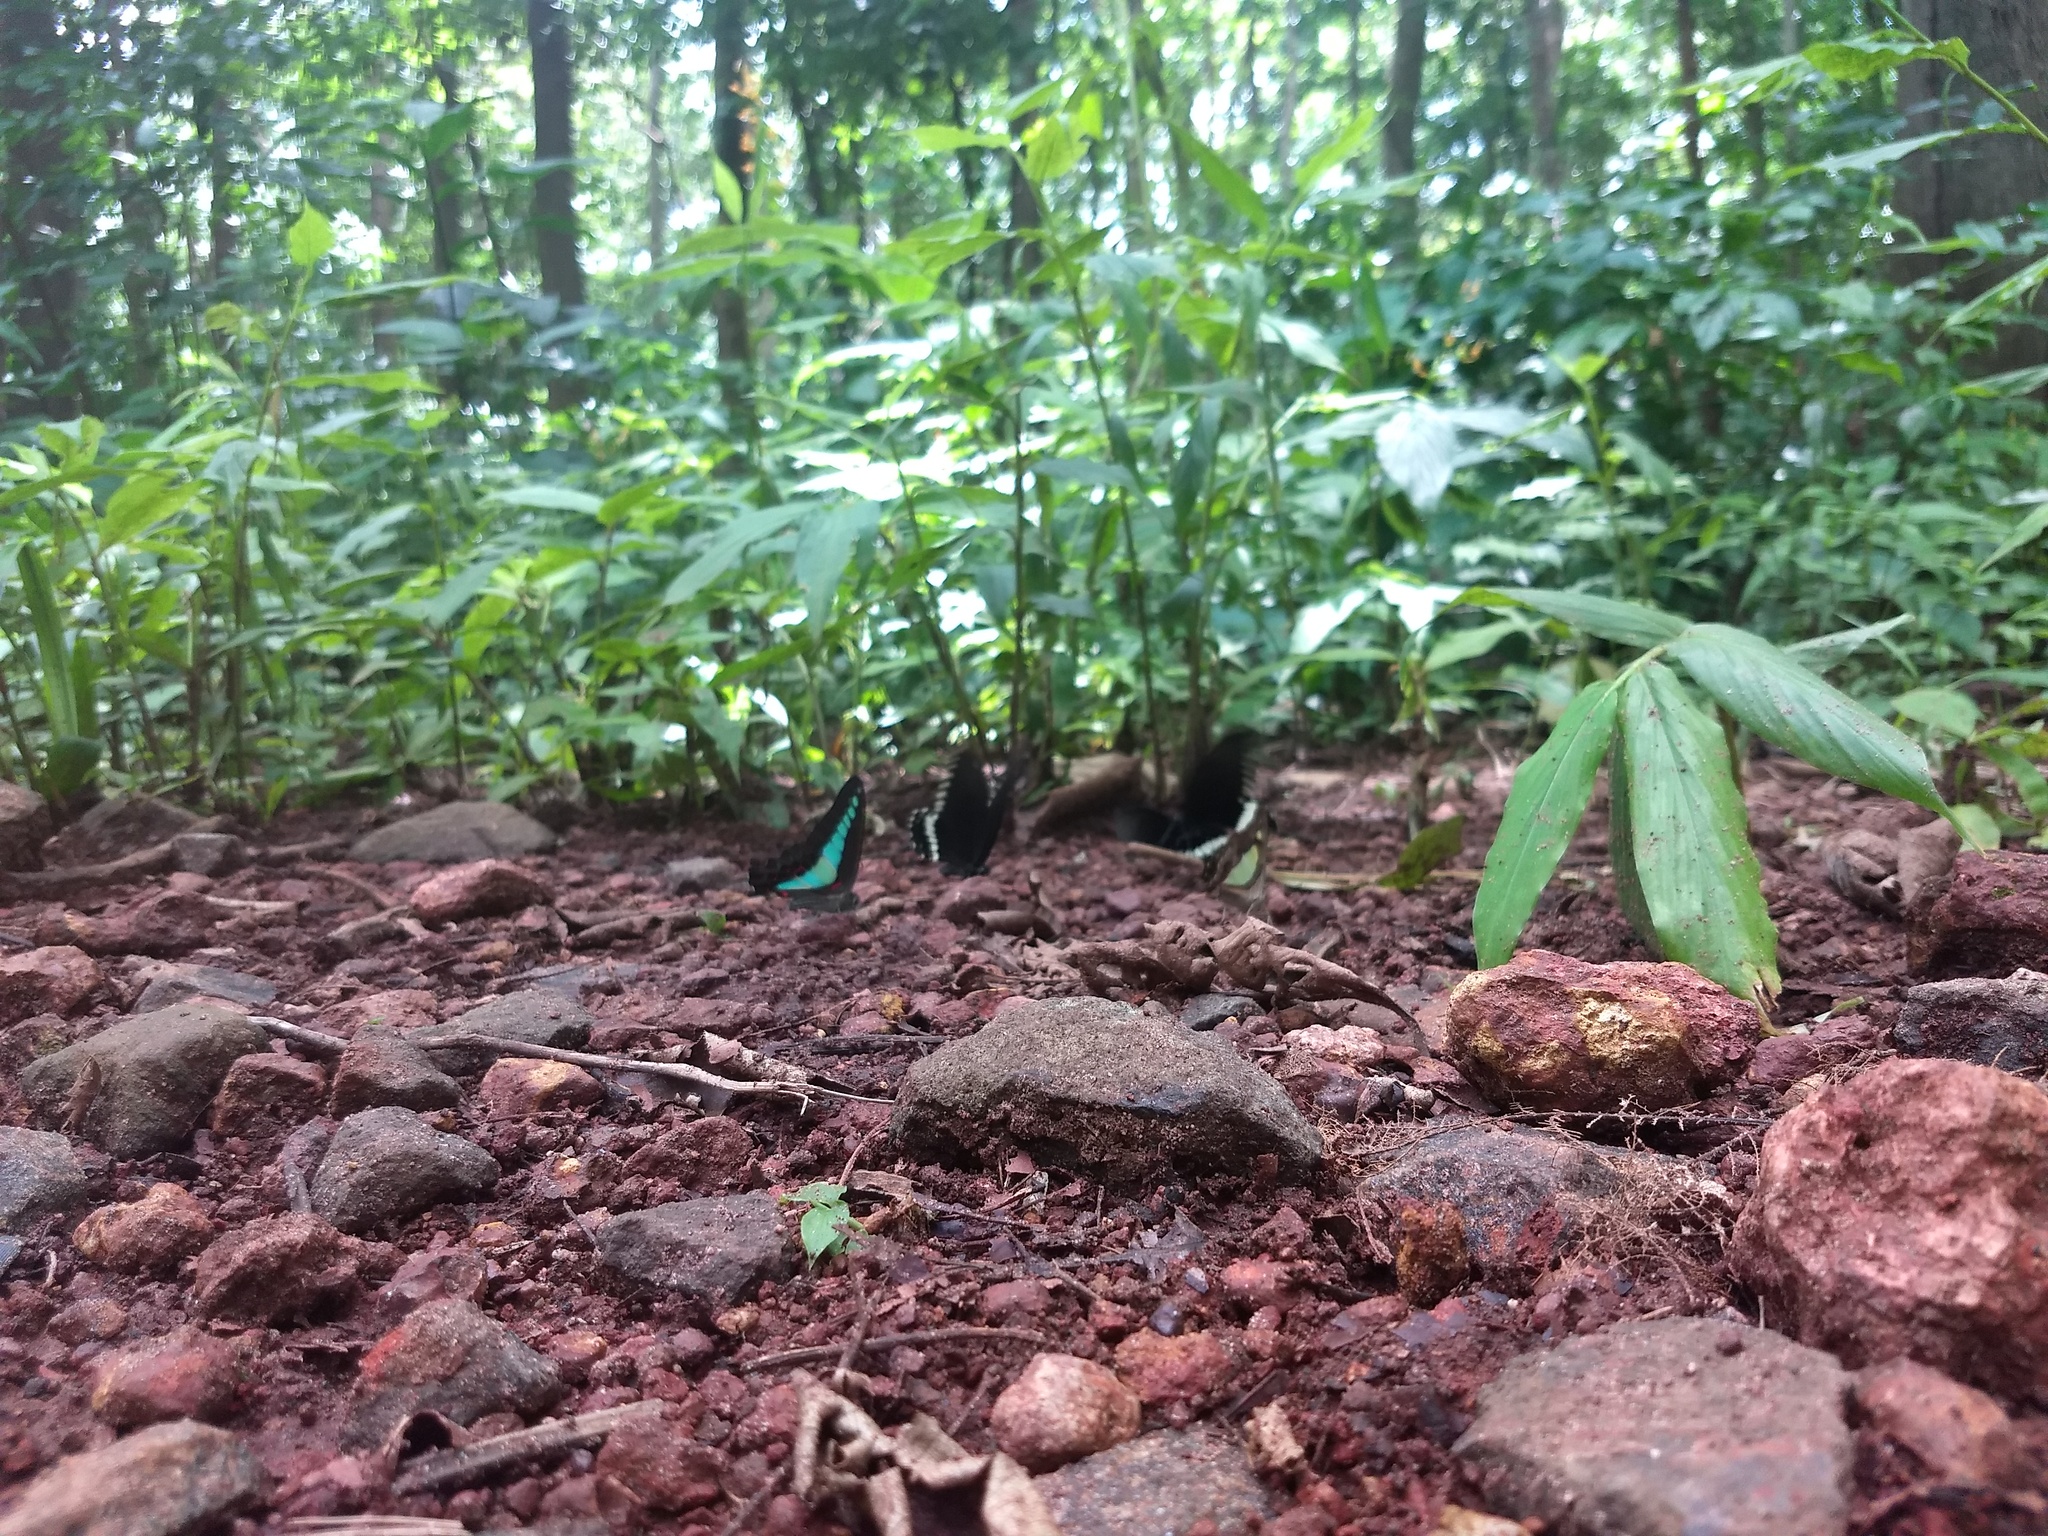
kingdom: Animalia
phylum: Arthropoda
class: Insecta
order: Lepidoptera
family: Papilionidae
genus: Graphium
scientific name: Graphium
